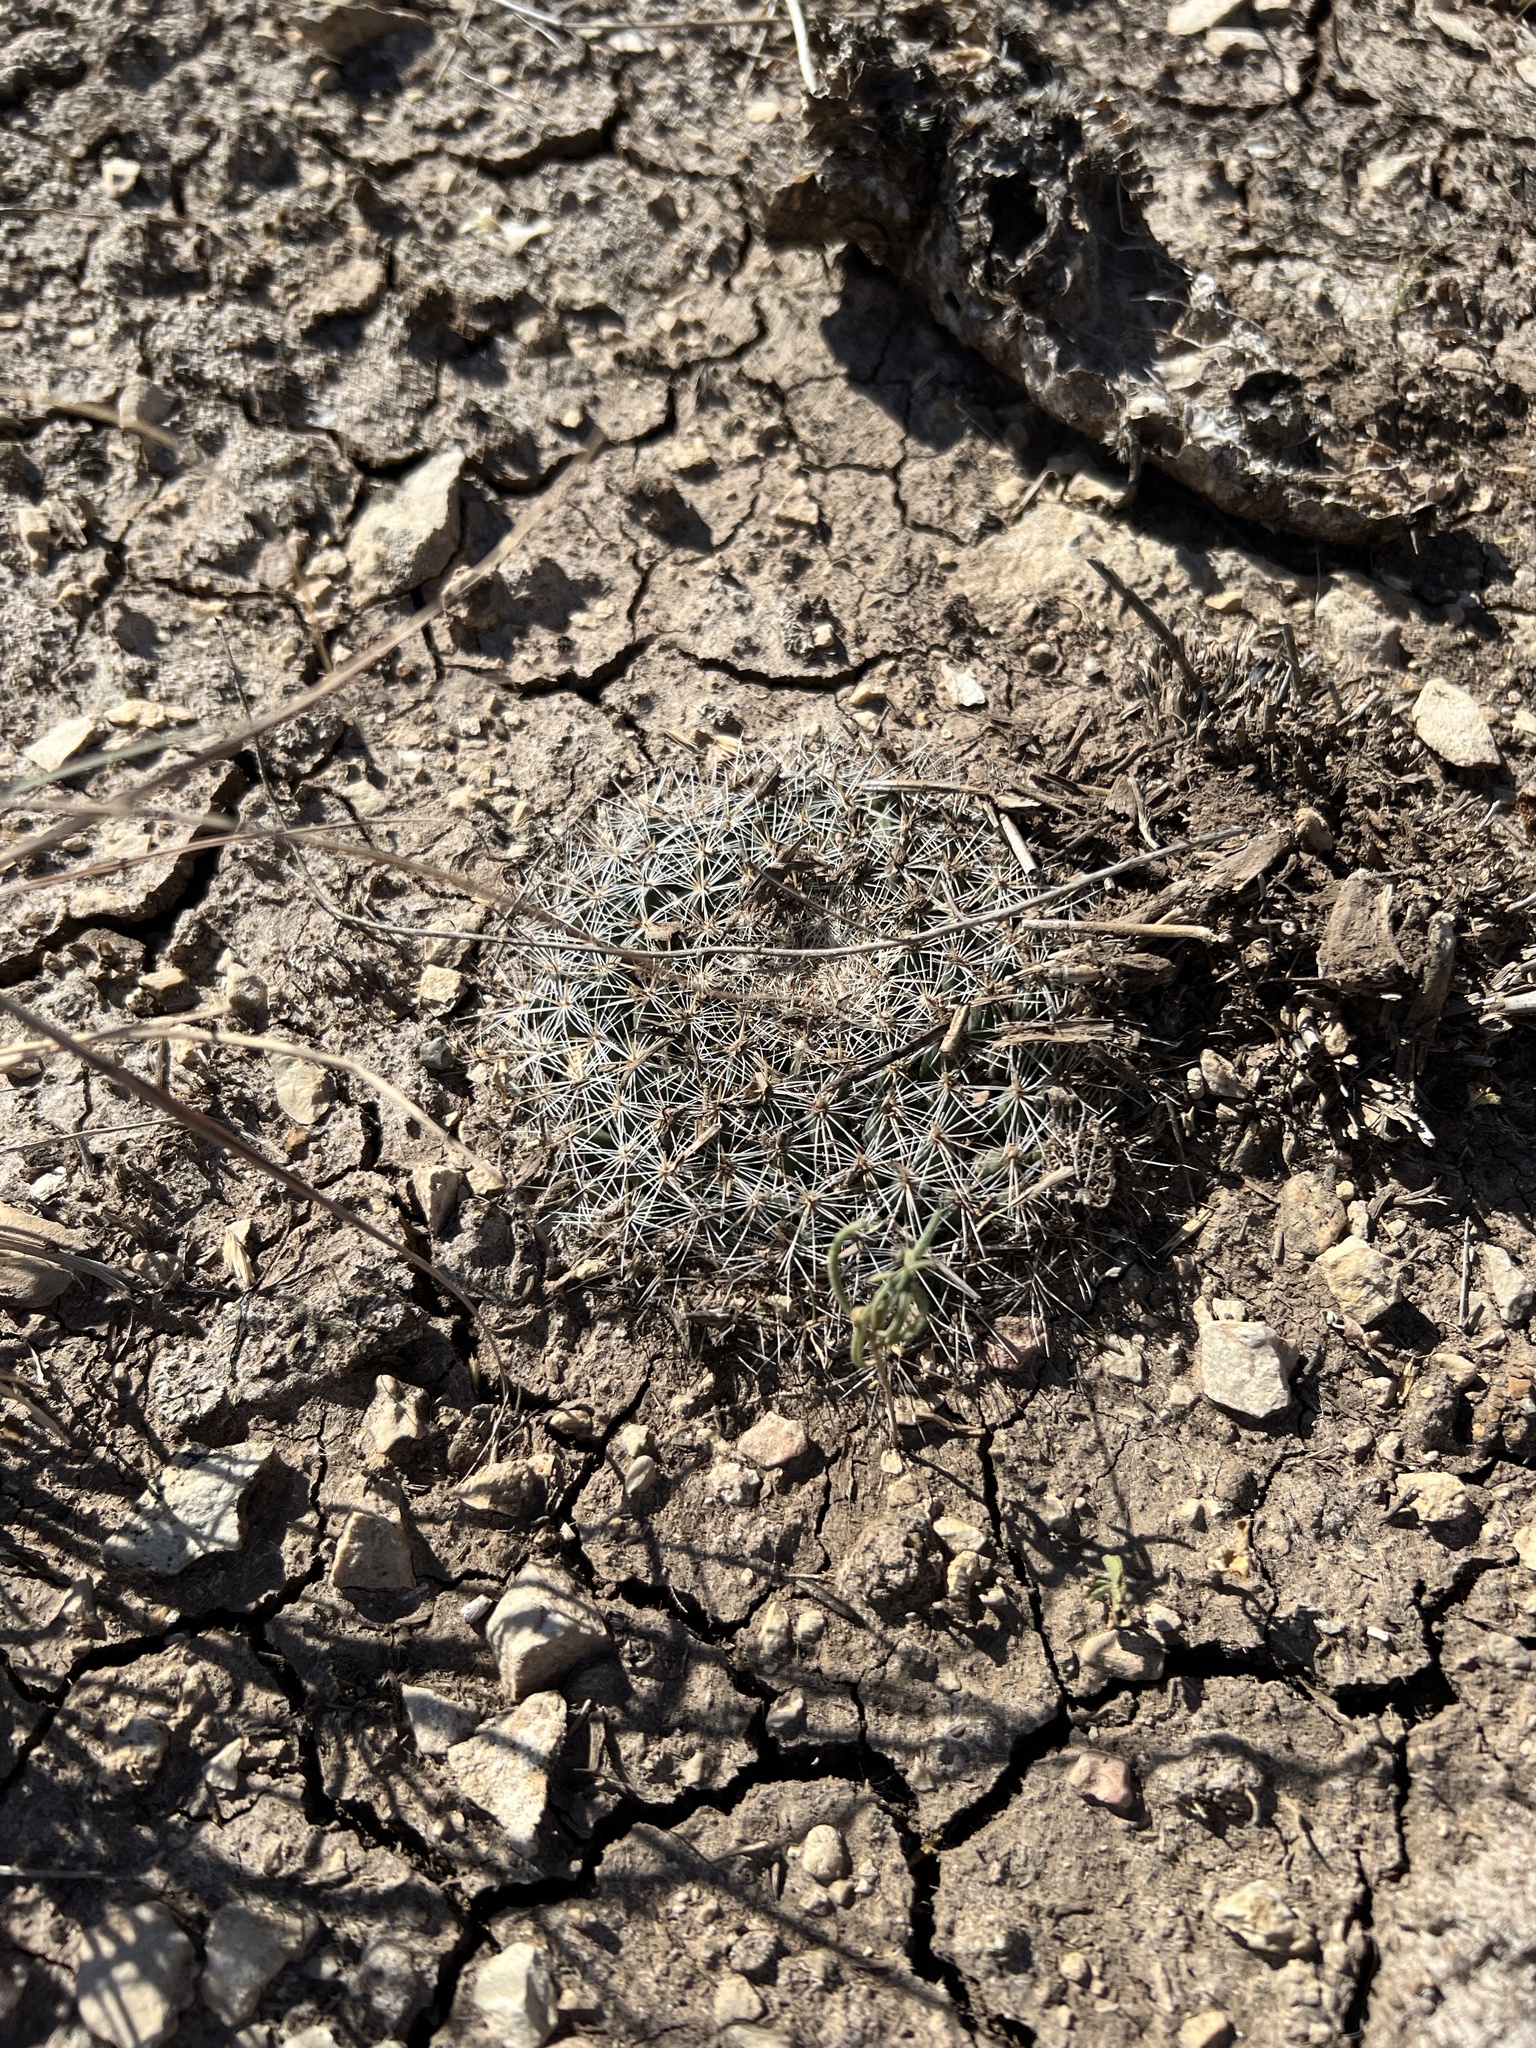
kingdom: Plantae
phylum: Tracheophyta
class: Magnoliopsida
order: Caryophyllales
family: Cactaceae
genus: Mammillaria
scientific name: Mammillaria heyderi
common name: Little nipple cactus
